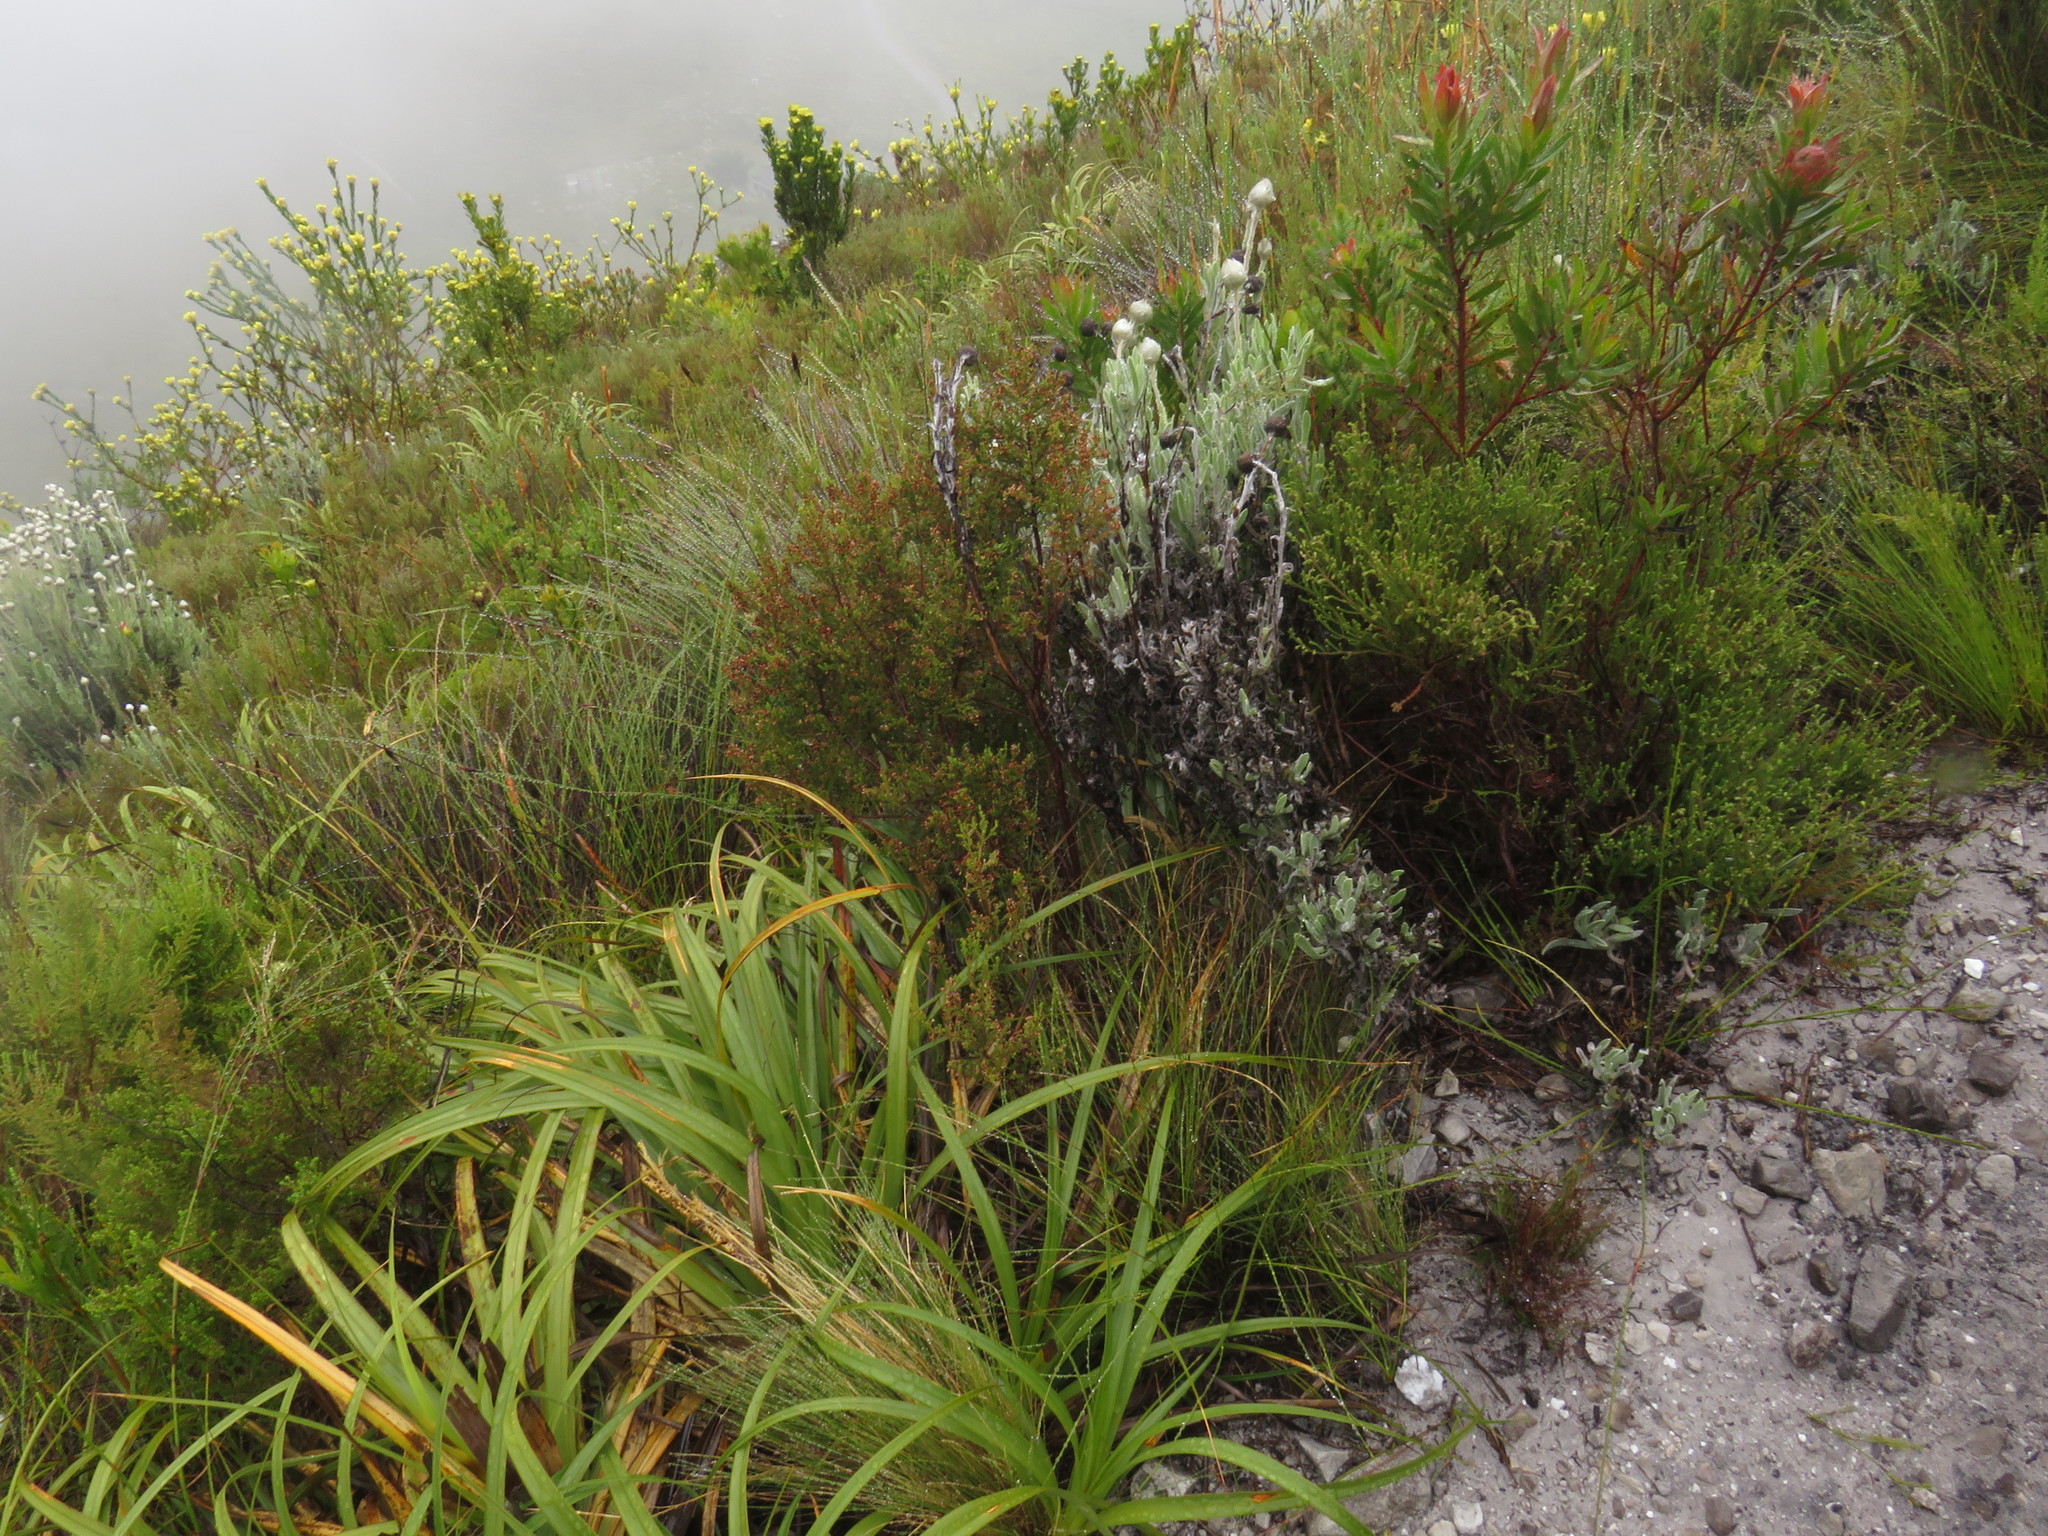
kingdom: Plantae
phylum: Tracheophyta
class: Magnoliopsida
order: Proteales
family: Proteaceae
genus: Leucadendron
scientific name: Leucadendron gandogeri
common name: Broad-leaf conebush
